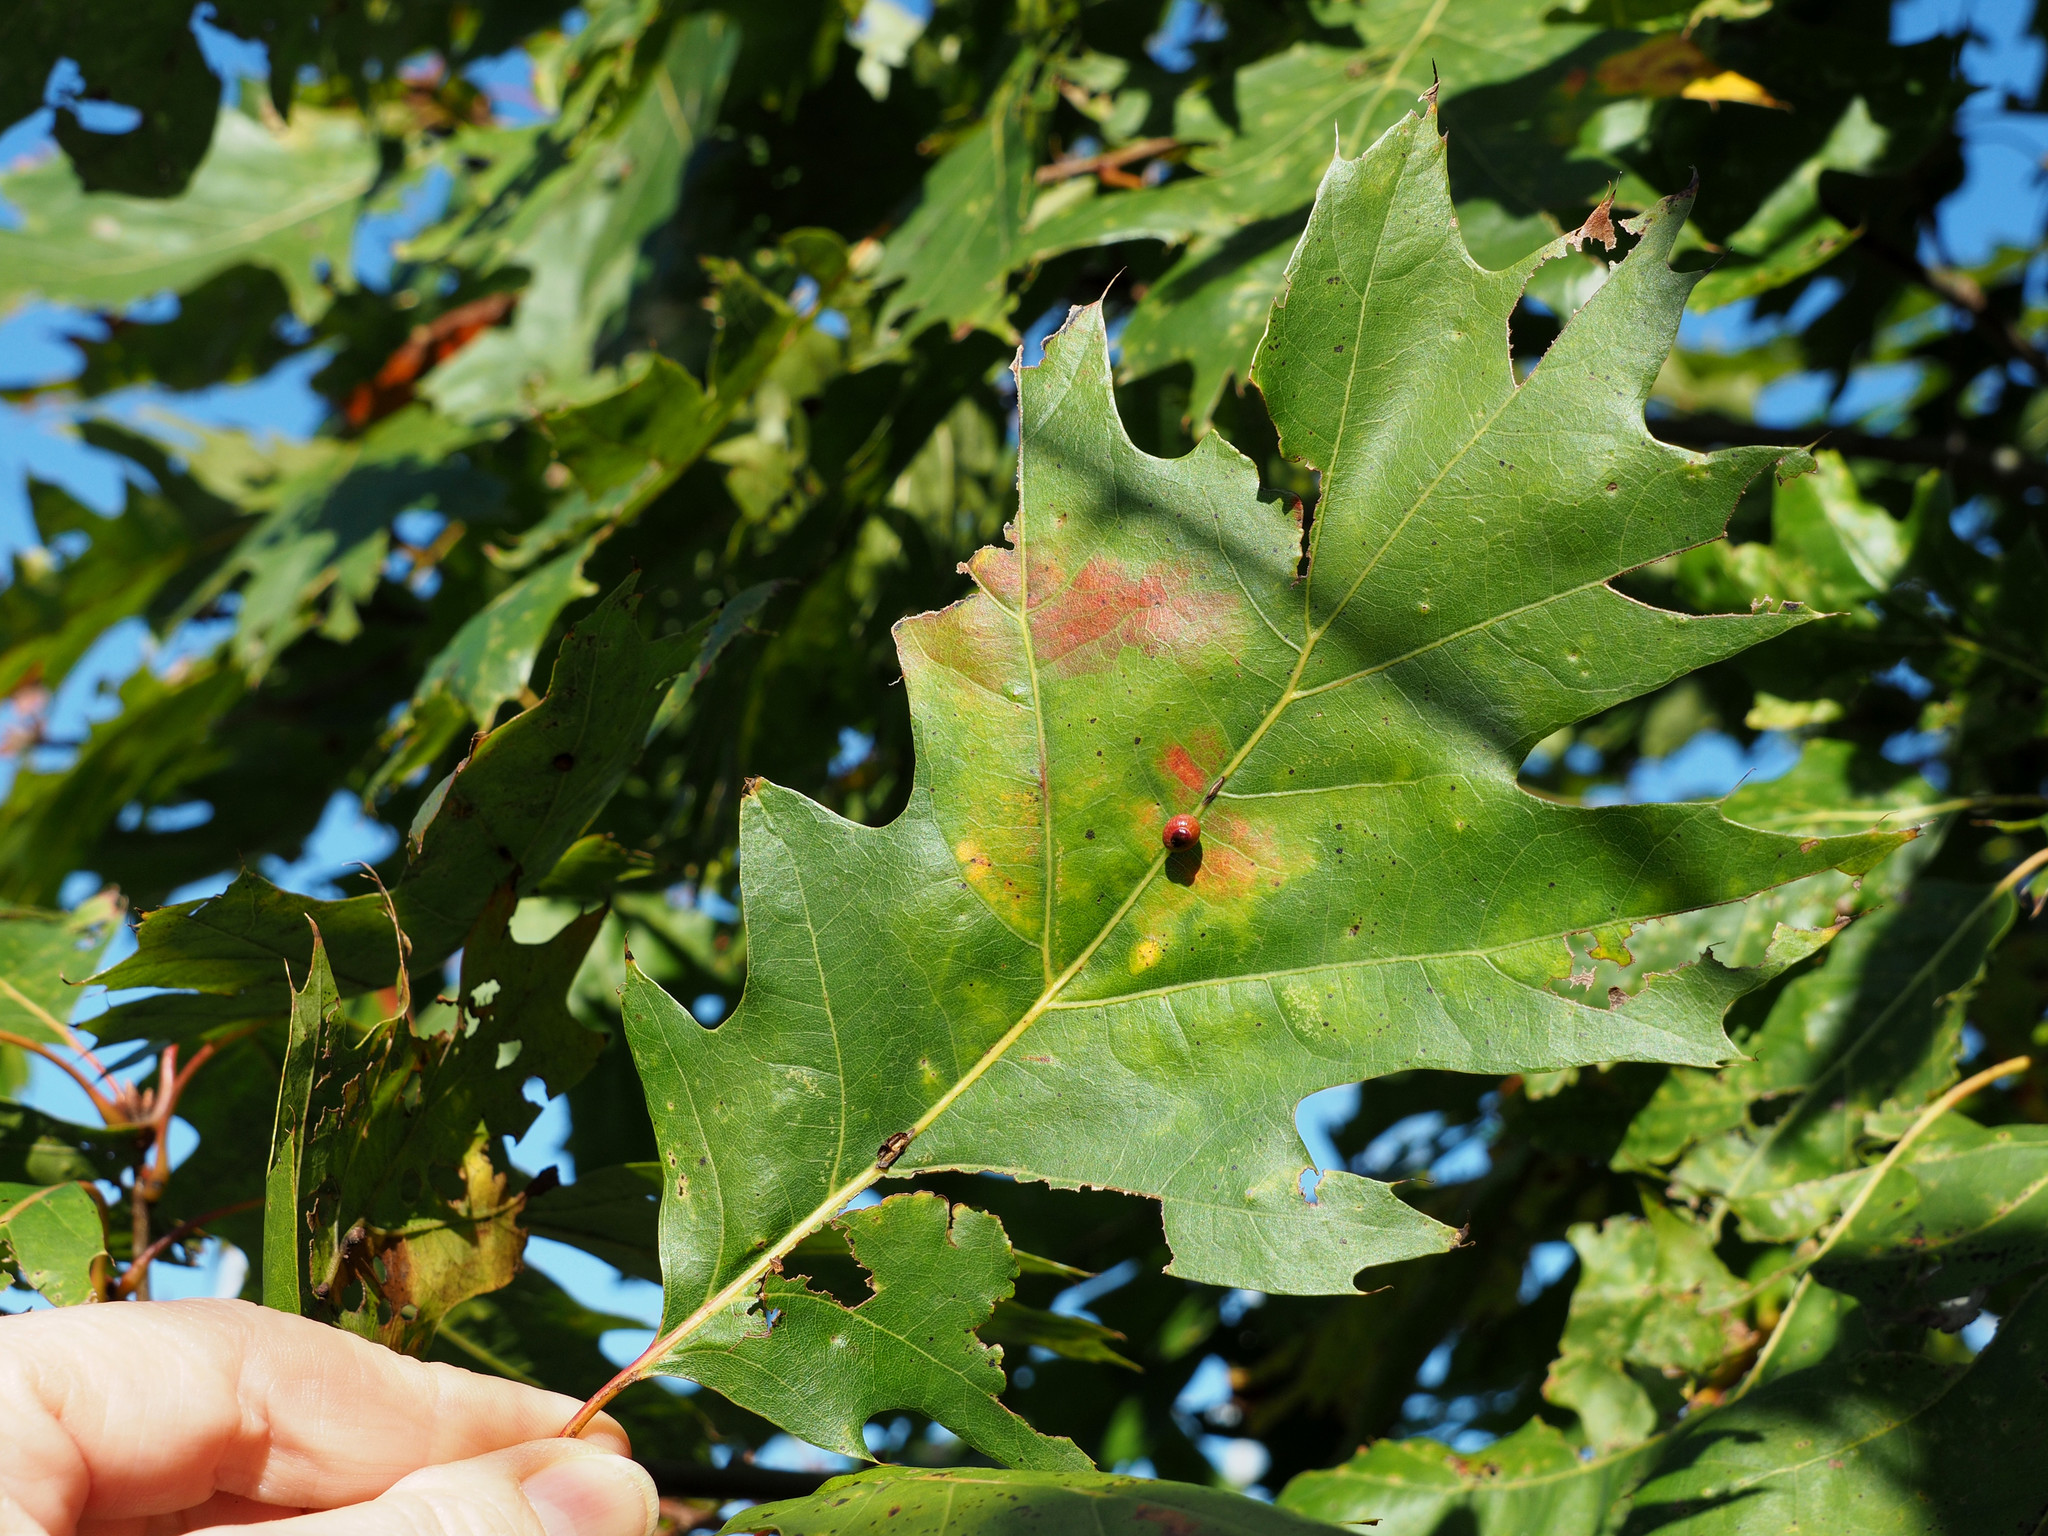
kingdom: Animalia
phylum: Arthropoda
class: Insecta
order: Hymenoptera
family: Cynipidae
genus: Kokkocynips
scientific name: Kokkocynips rileyi
